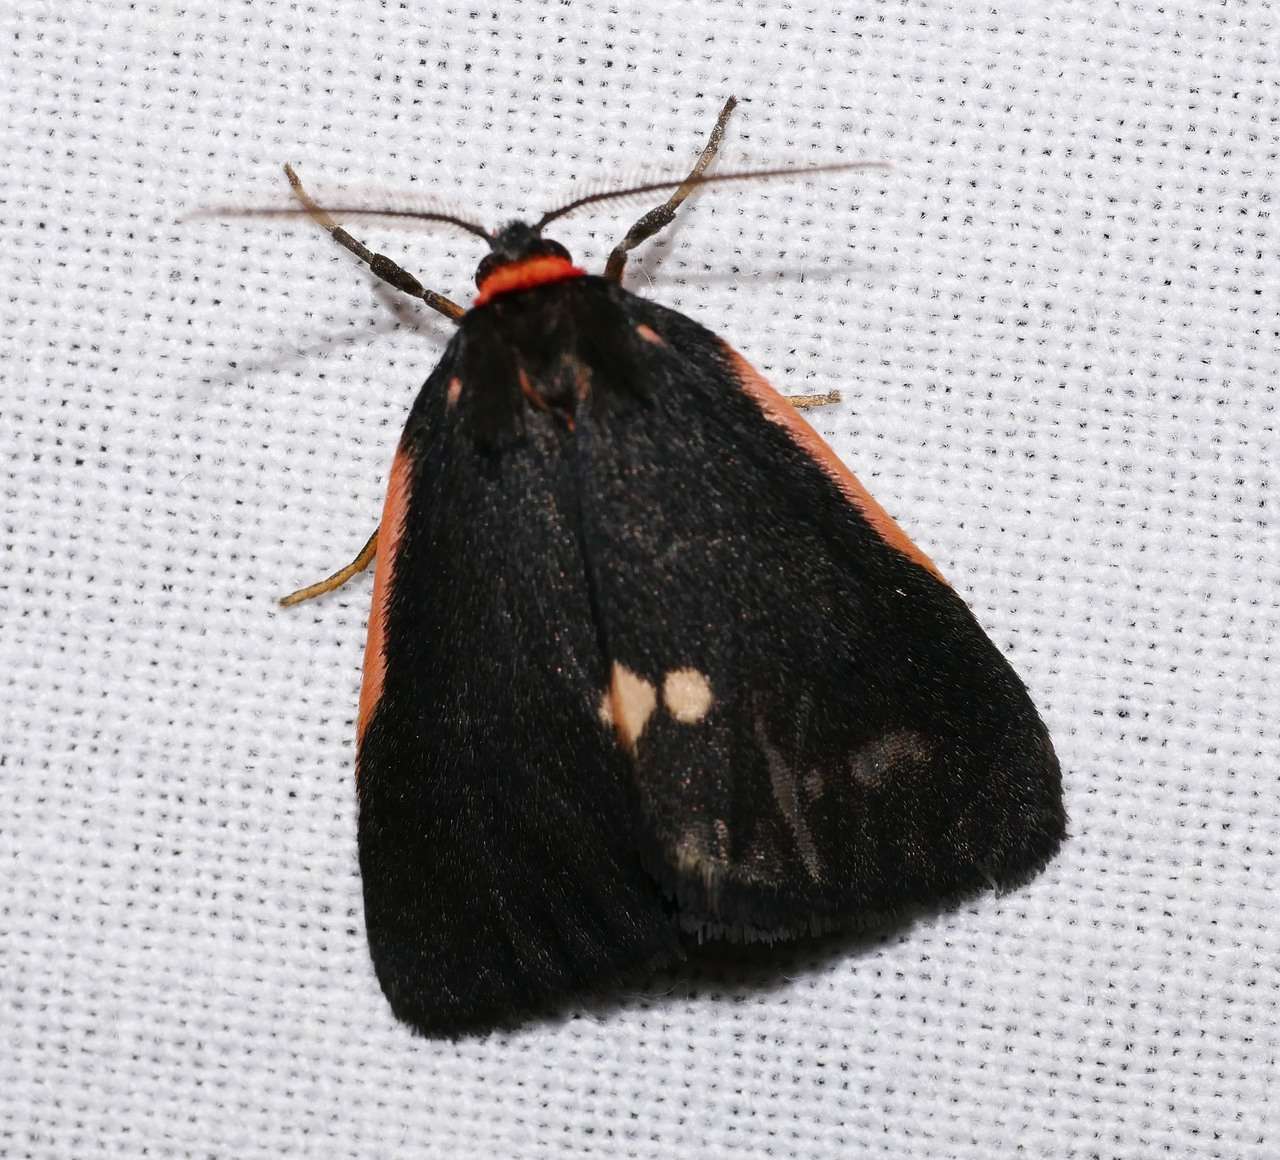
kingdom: Animalia
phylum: Arthropoda
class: Insecta
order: Lepidoptera
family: Erebidae
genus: Castulo
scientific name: Castulo doubledayi
